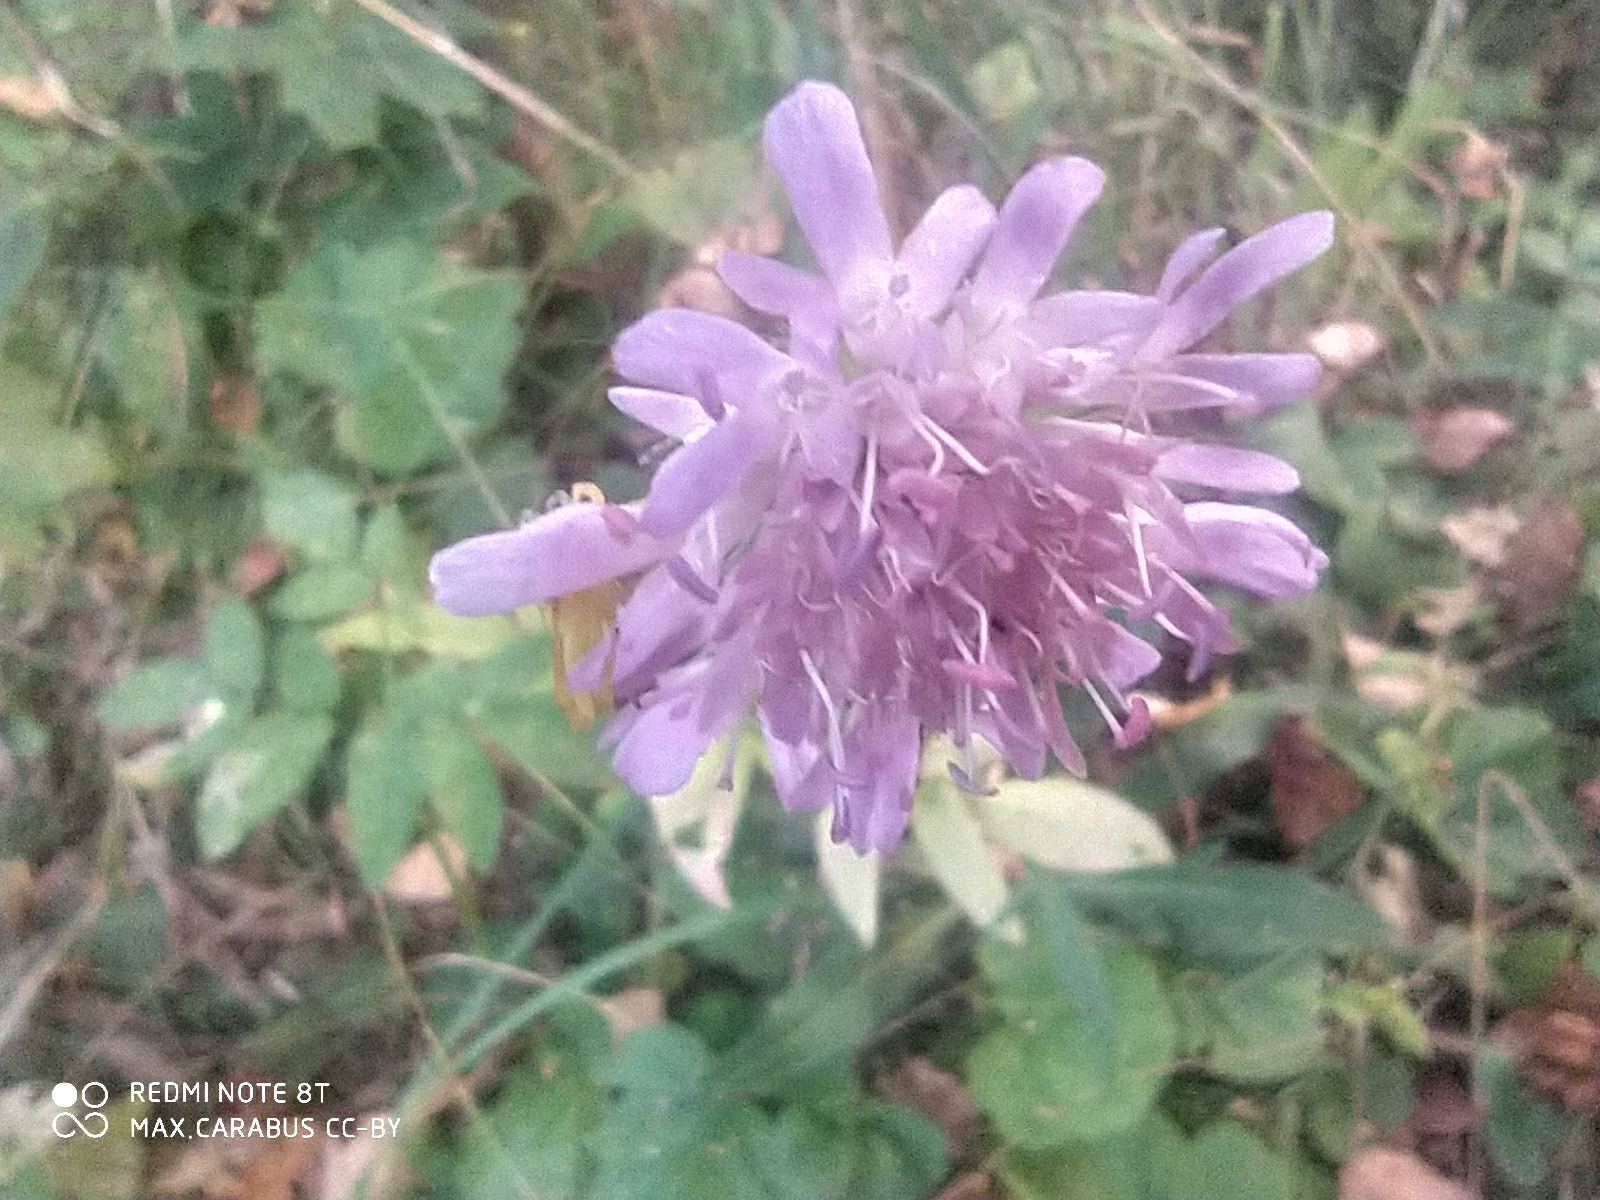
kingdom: Plantae
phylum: Tracheophyta
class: Magnoliopsida
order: Dipsacales
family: Caprifoliaceae
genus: Knautia
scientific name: Knautia arvensis
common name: Field scabiosa
